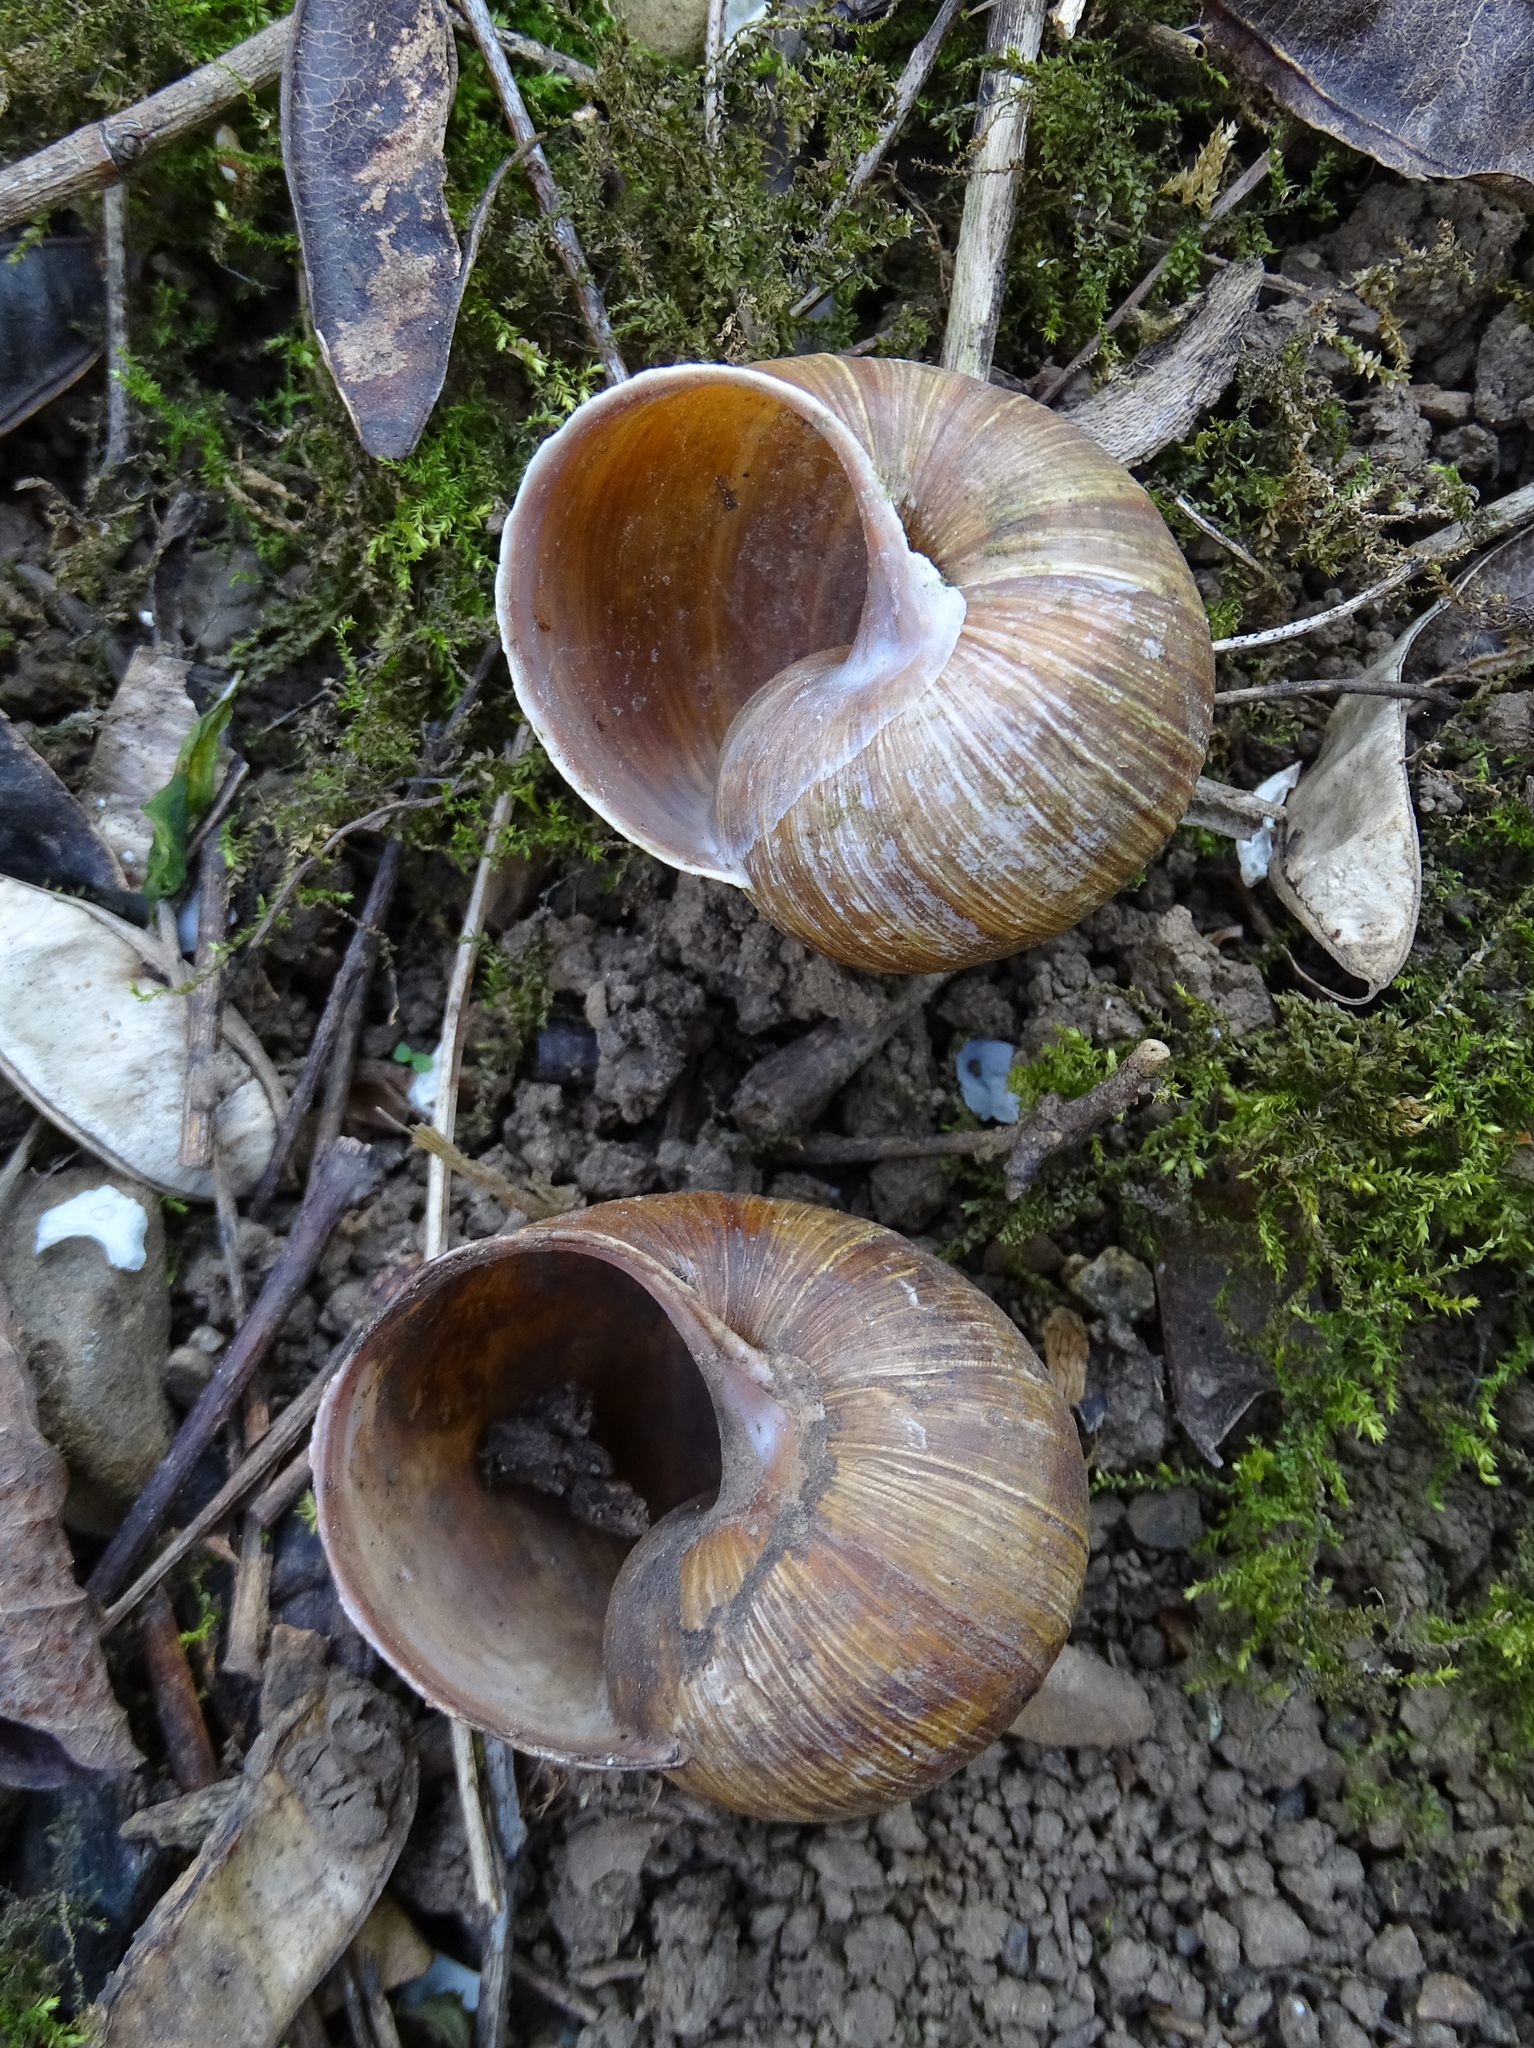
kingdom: Animalia
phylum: Mollusca
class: Gastropoda
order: Stylommatophora
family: Helicidae
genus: Helix
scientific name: Helix pomatia
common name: Roman snail
